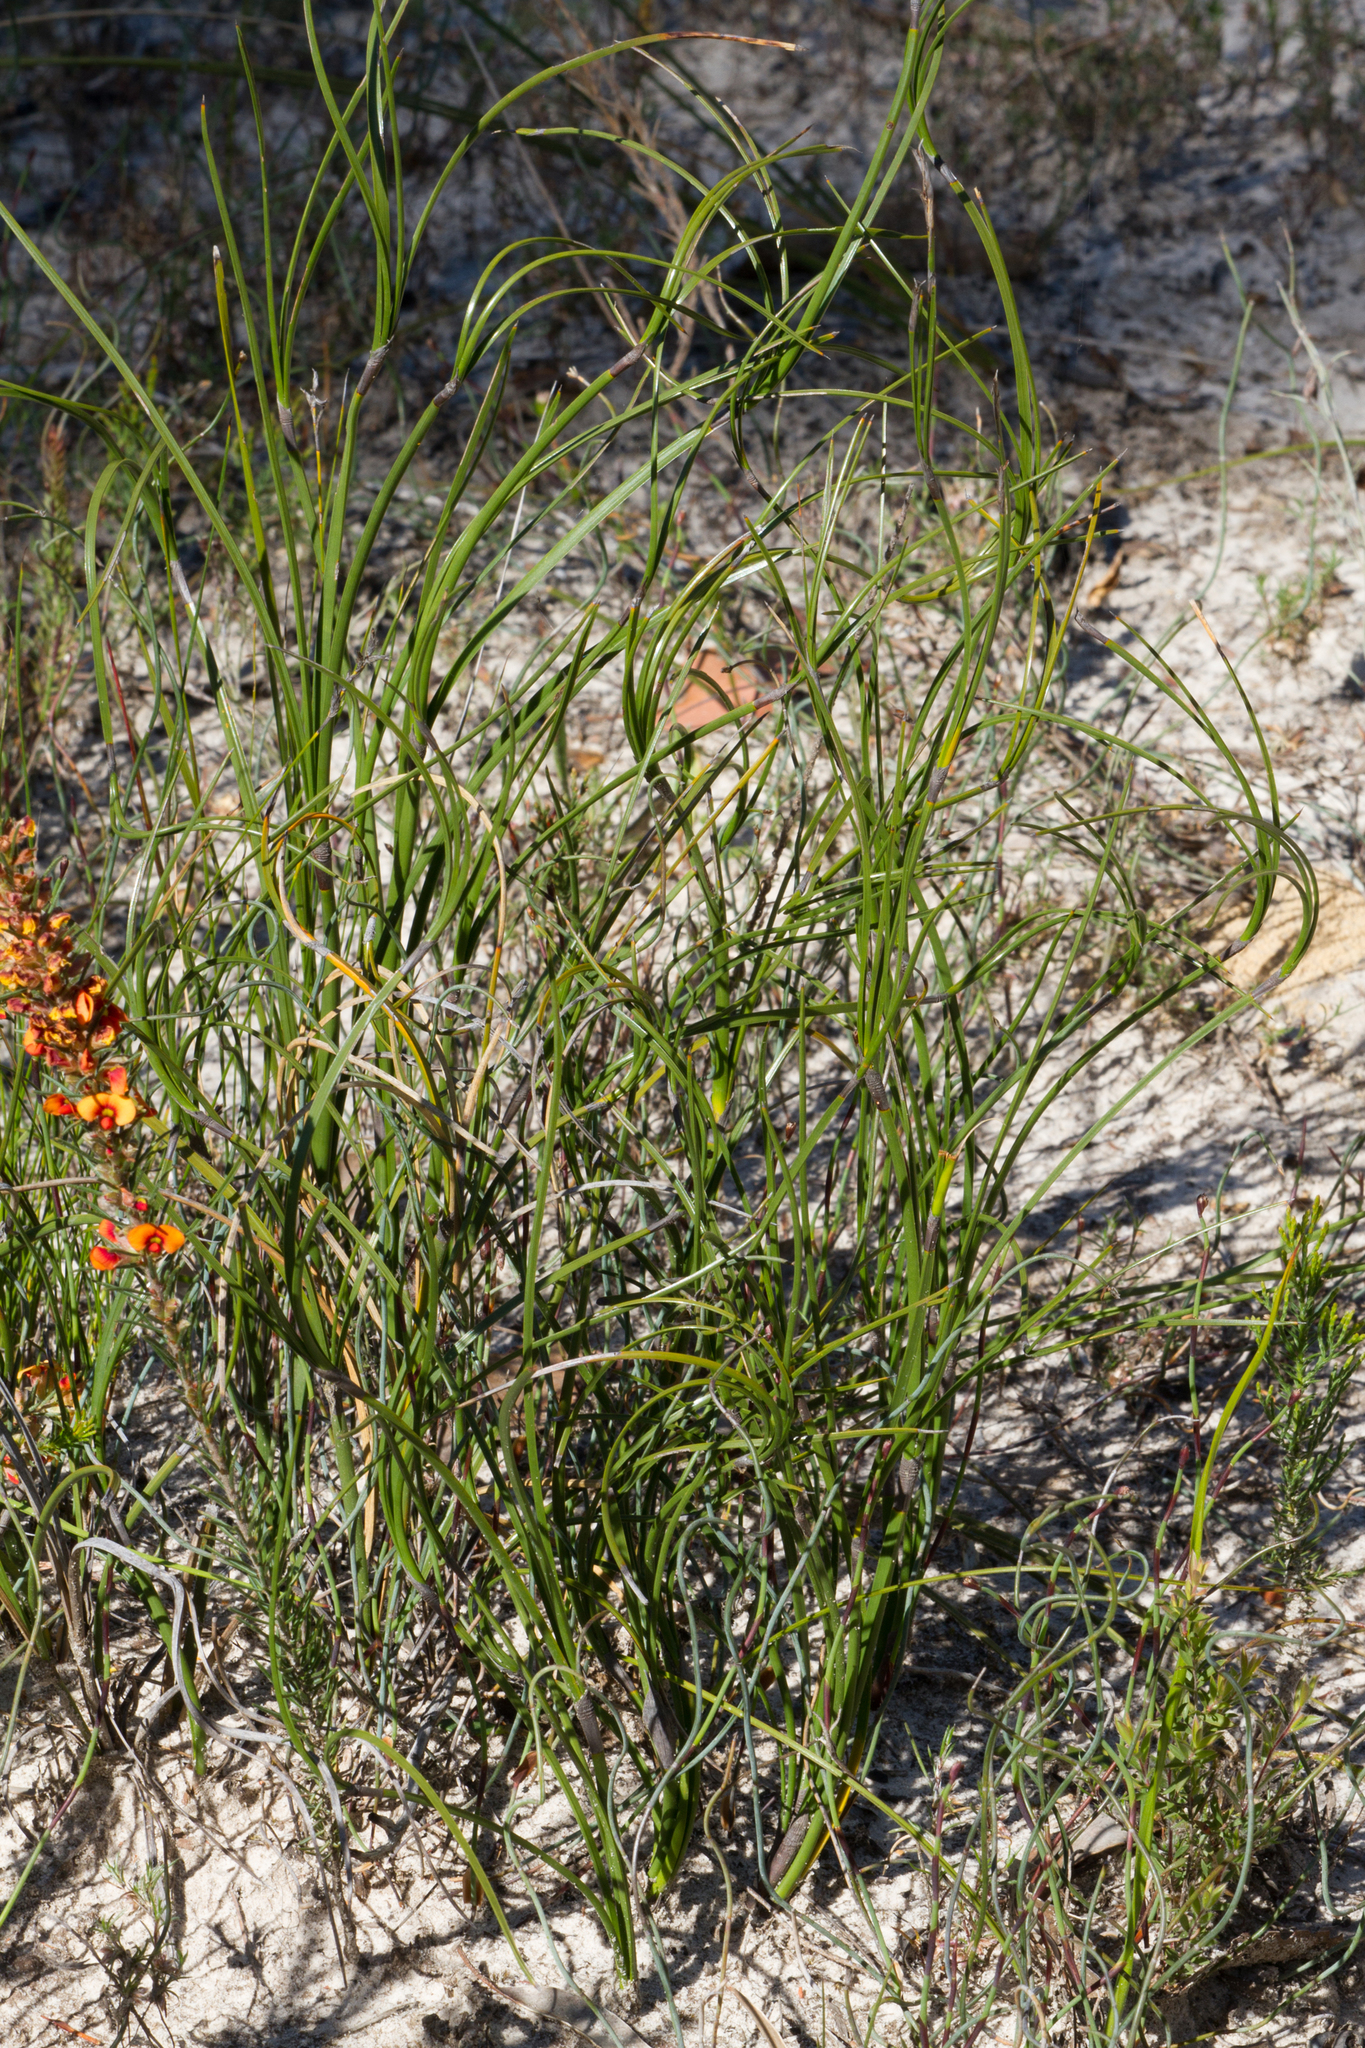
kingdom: Plantae
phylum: Tracheophyta
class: Liliopsida
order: Poales
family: Cyperaceae
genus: Caustis
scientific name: Caustis pentandra
